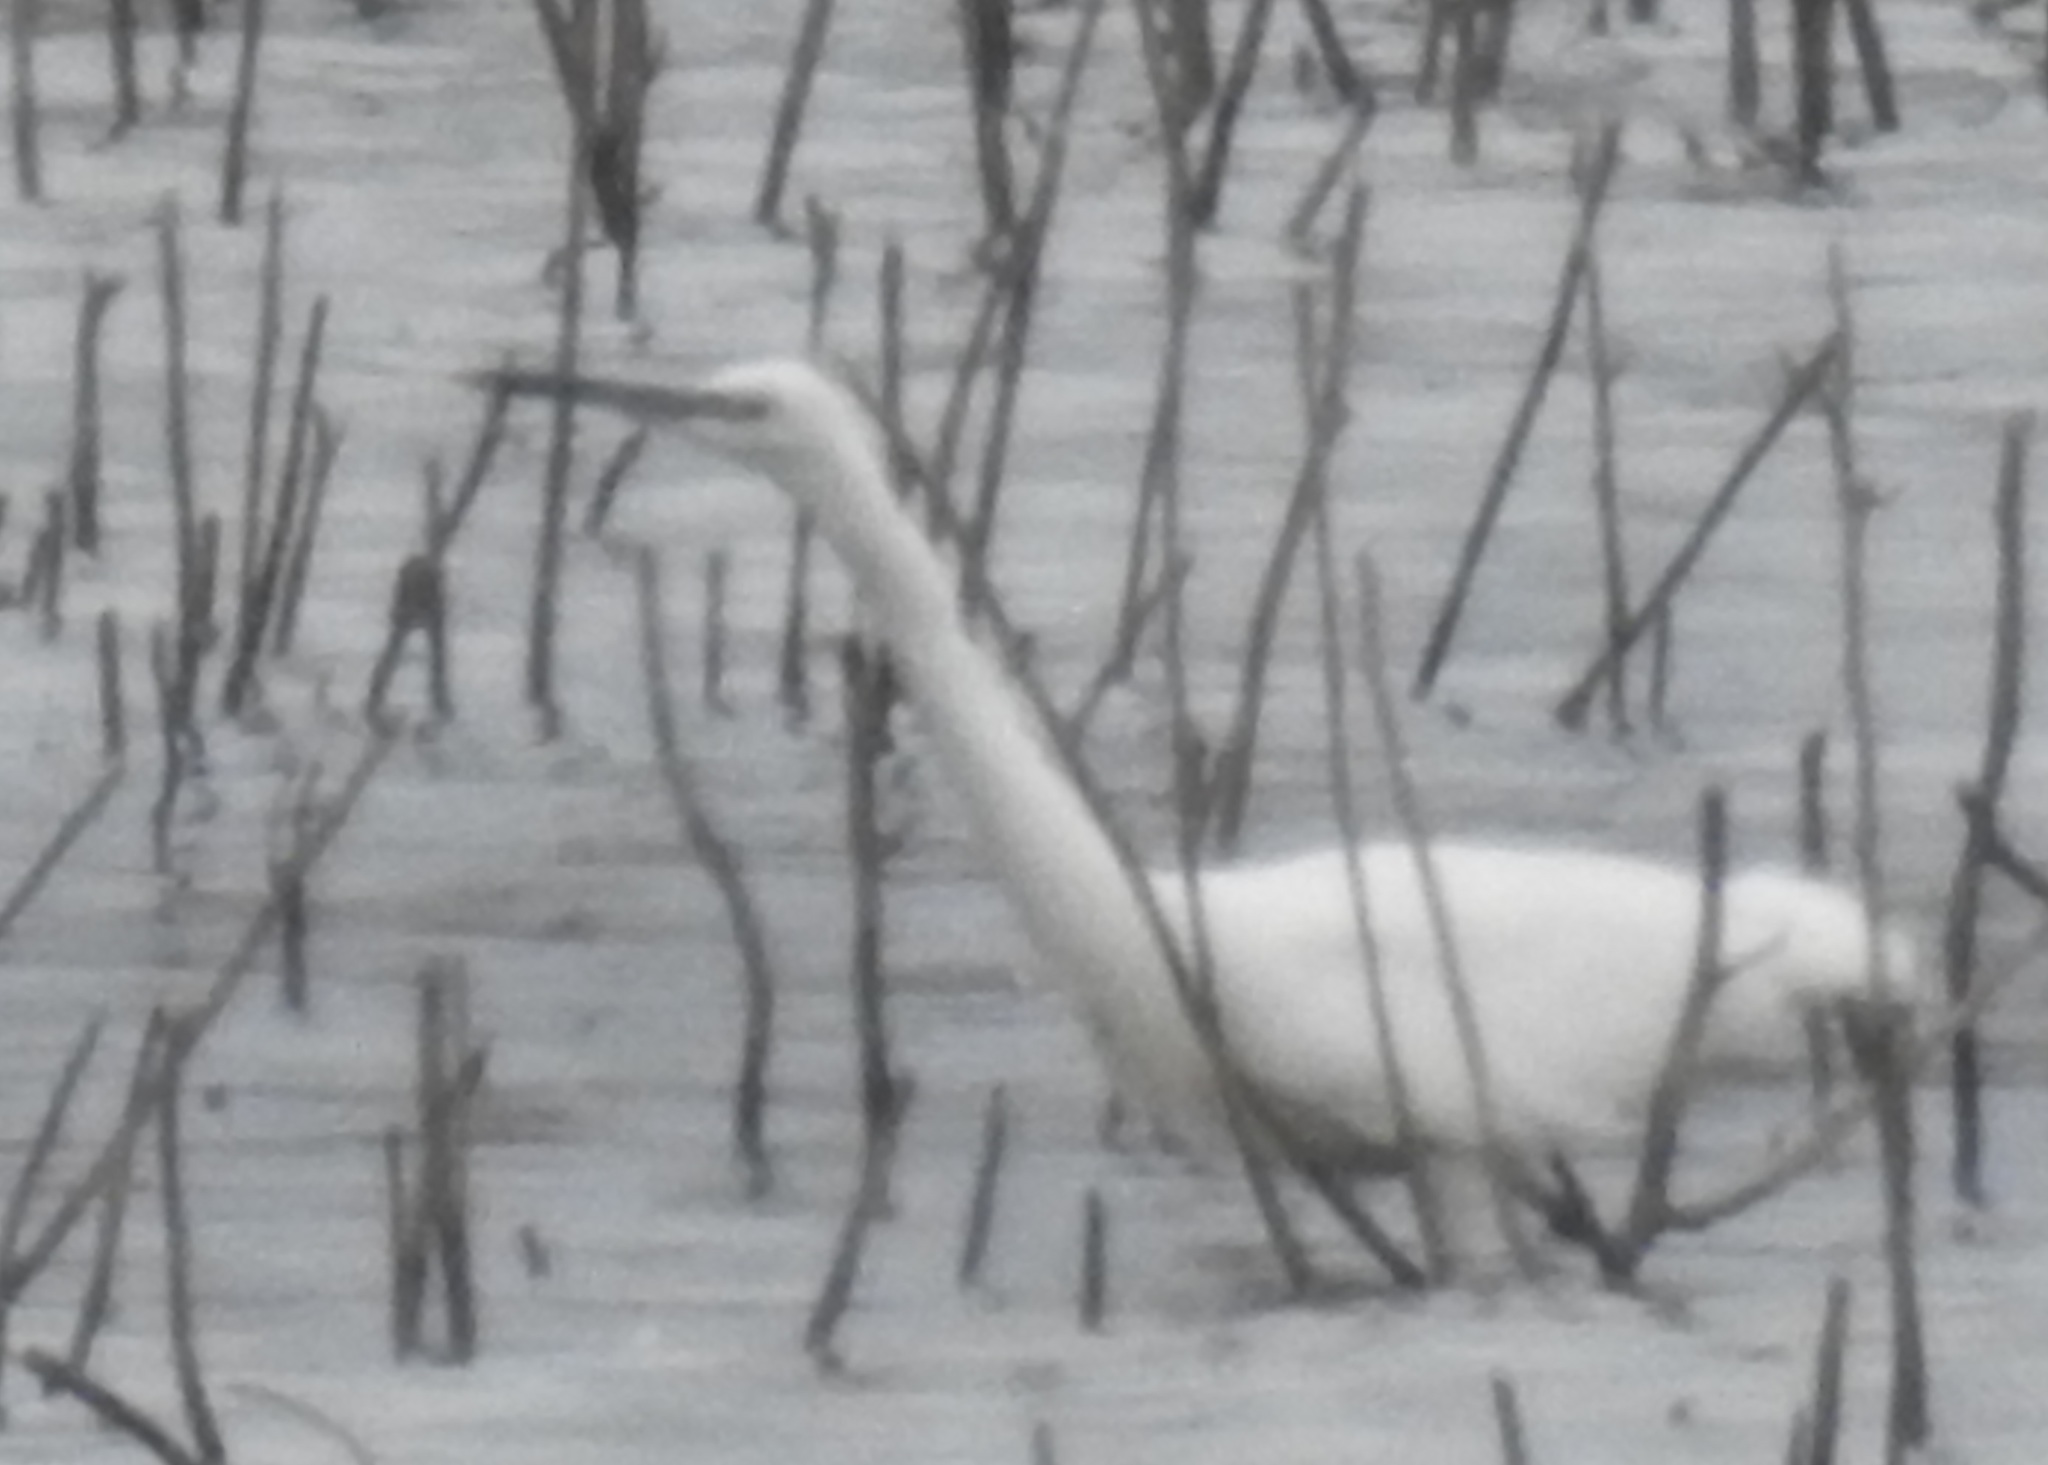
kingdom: Animalia
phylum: Chordata
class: Aves
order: Pelecaniformes
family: Ardeidae
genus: Egretta
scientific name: Egretta garzetta
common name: Little egret
